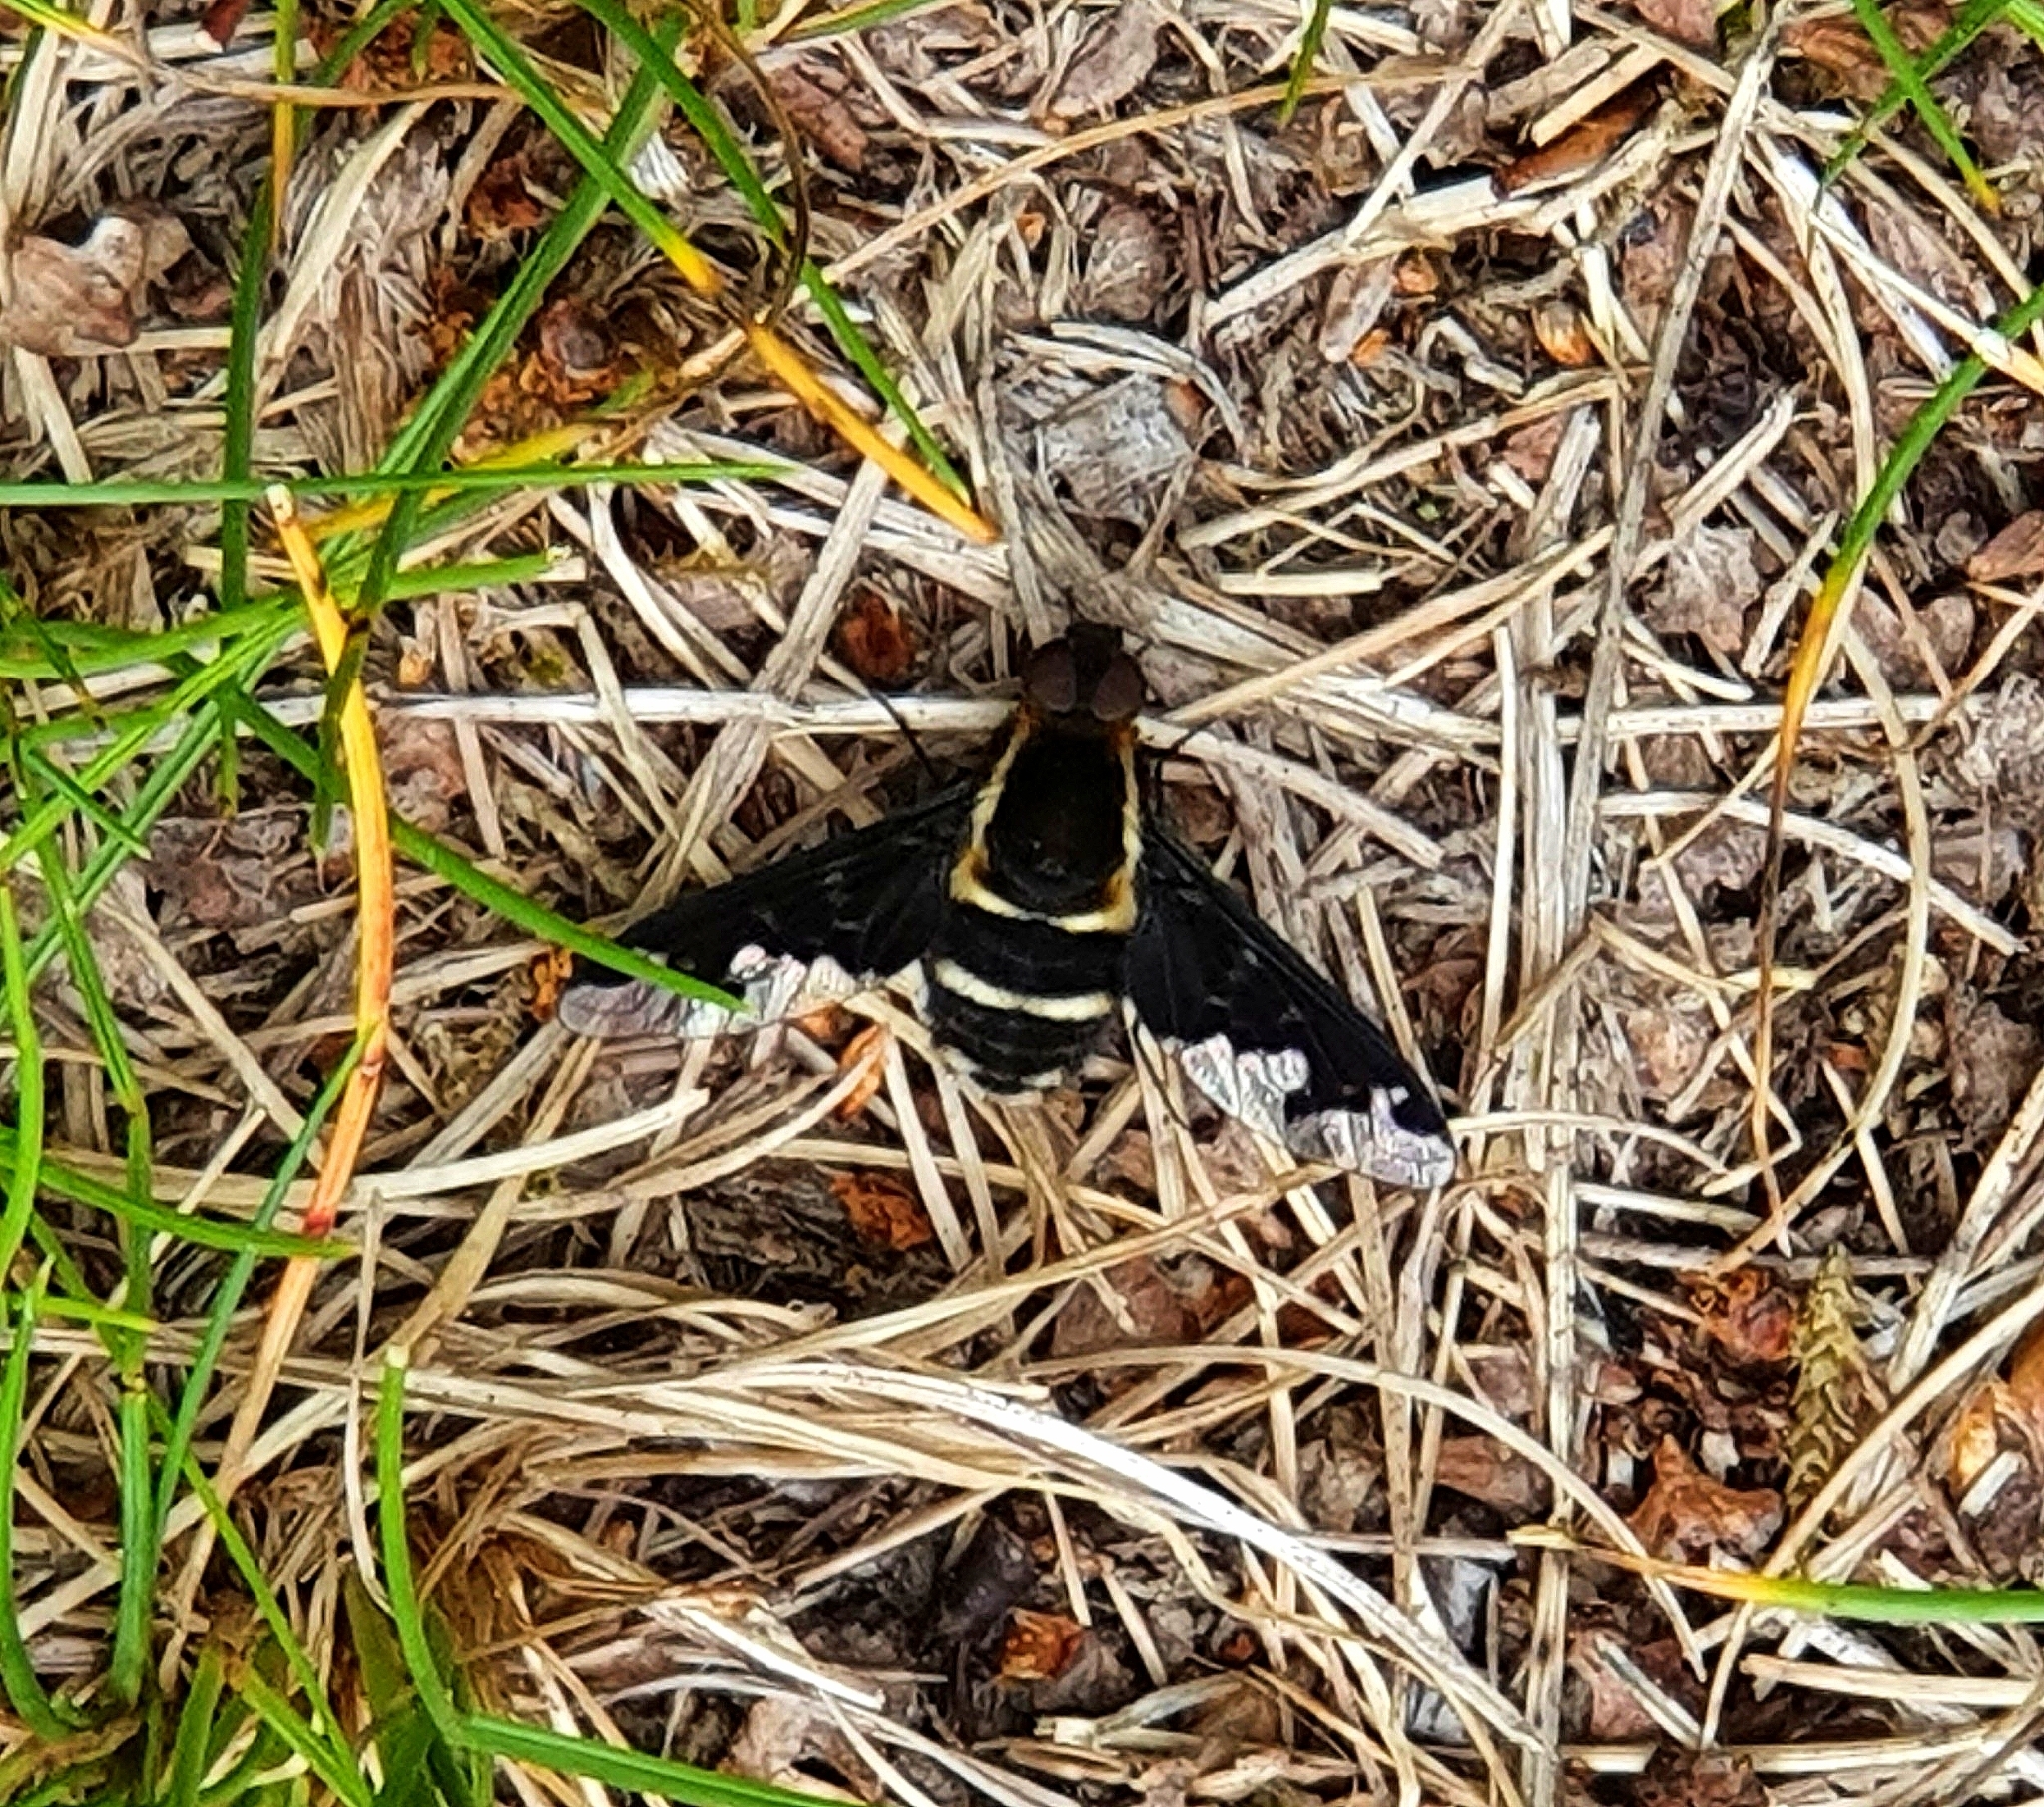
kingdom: Animalia
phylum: Arthropoda
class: Insecta
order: Diptera
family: Bombyliidae
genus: Hemipenthes
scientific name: Hemipenthes maura
